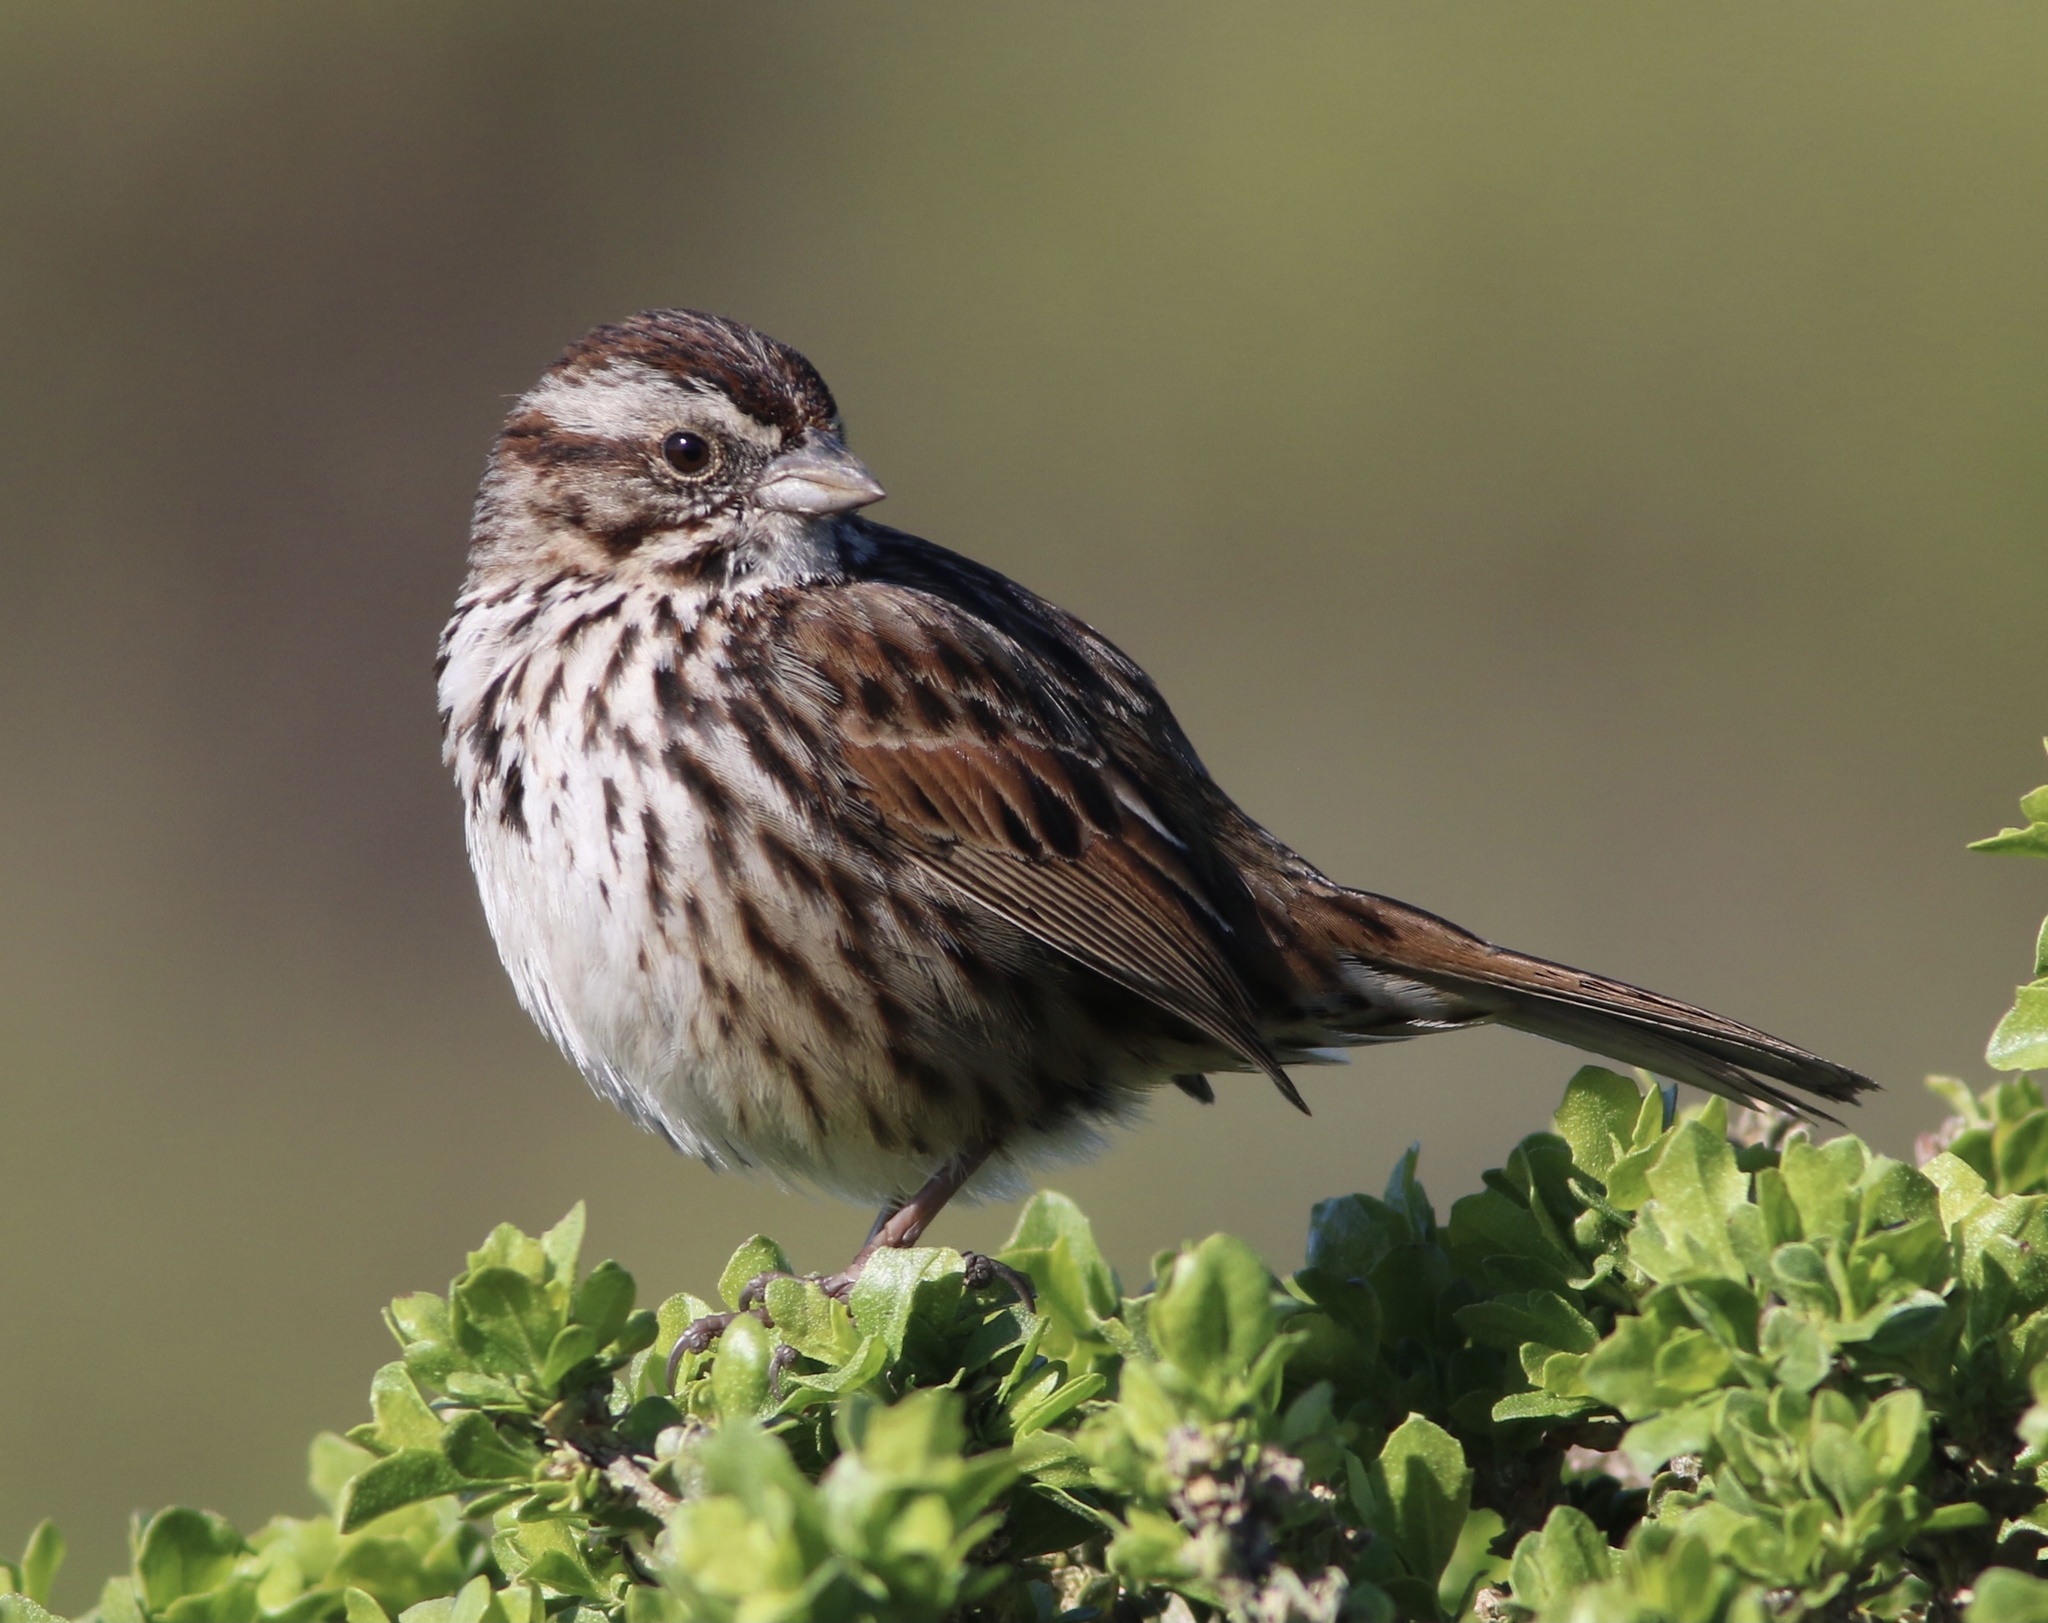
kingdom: Animalia
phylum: Chordata
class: Aves
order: Passeriformes
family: Passerellidae
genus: Melospiza
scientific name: Melospiza melodia
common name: Song sparrow
